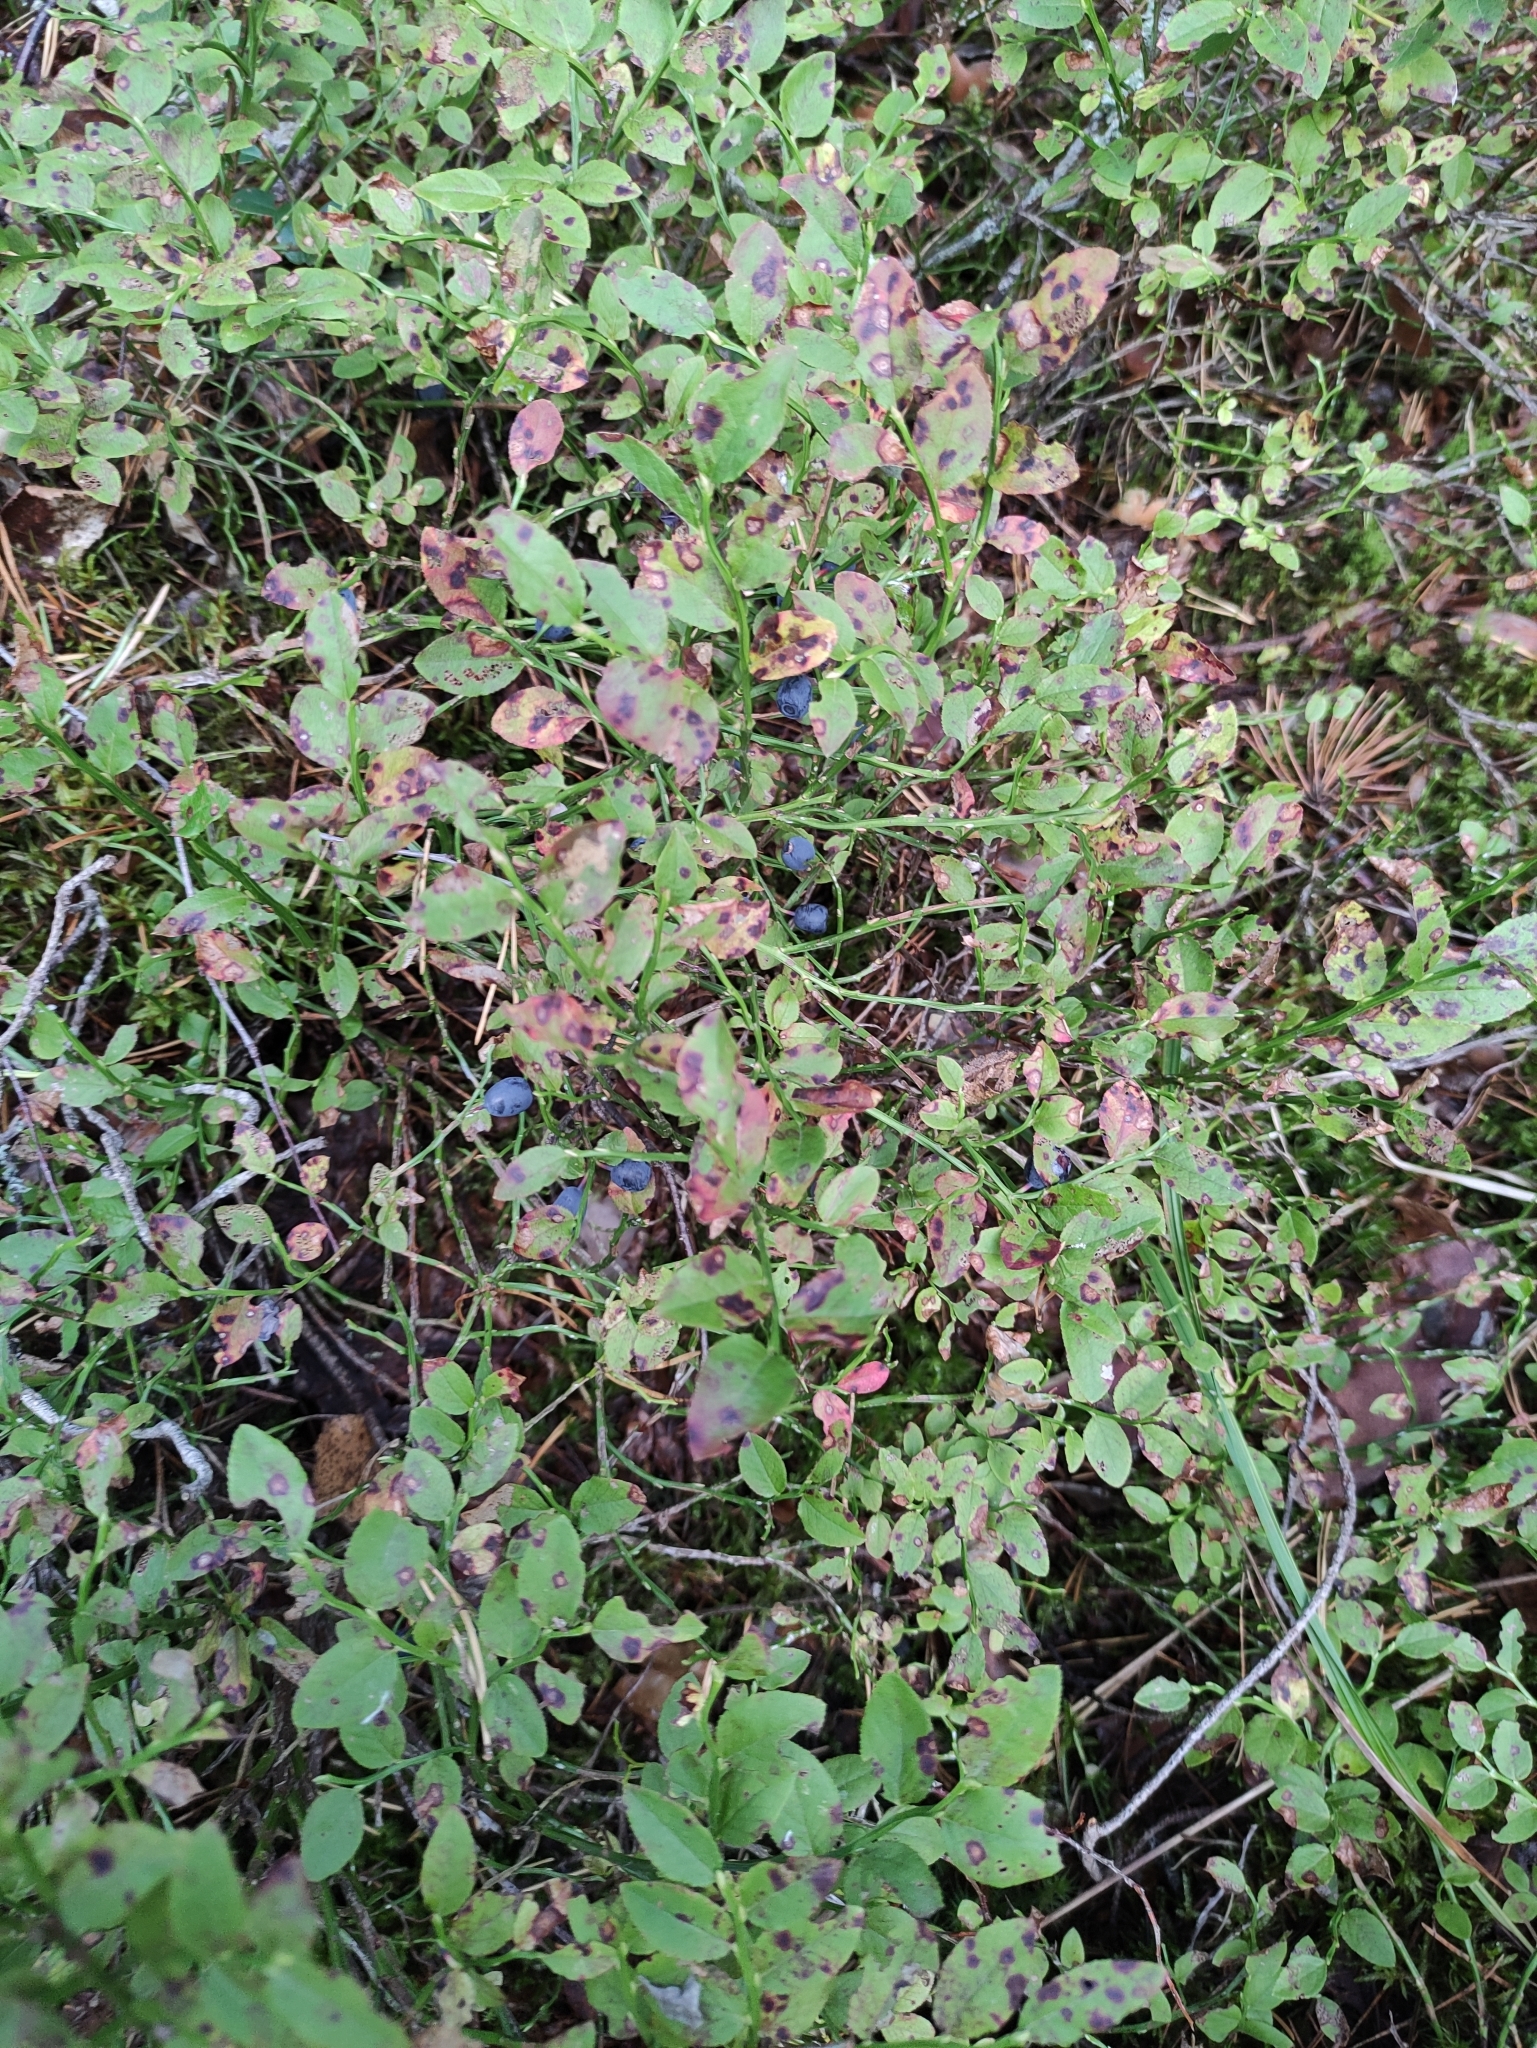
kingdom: Plantae
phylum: Tracheophyta
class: Magnoliopsida
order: Ericales
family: Ericaceae
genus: Vaccinium
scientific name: Vaccinium myrtillus
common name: Bilberry
